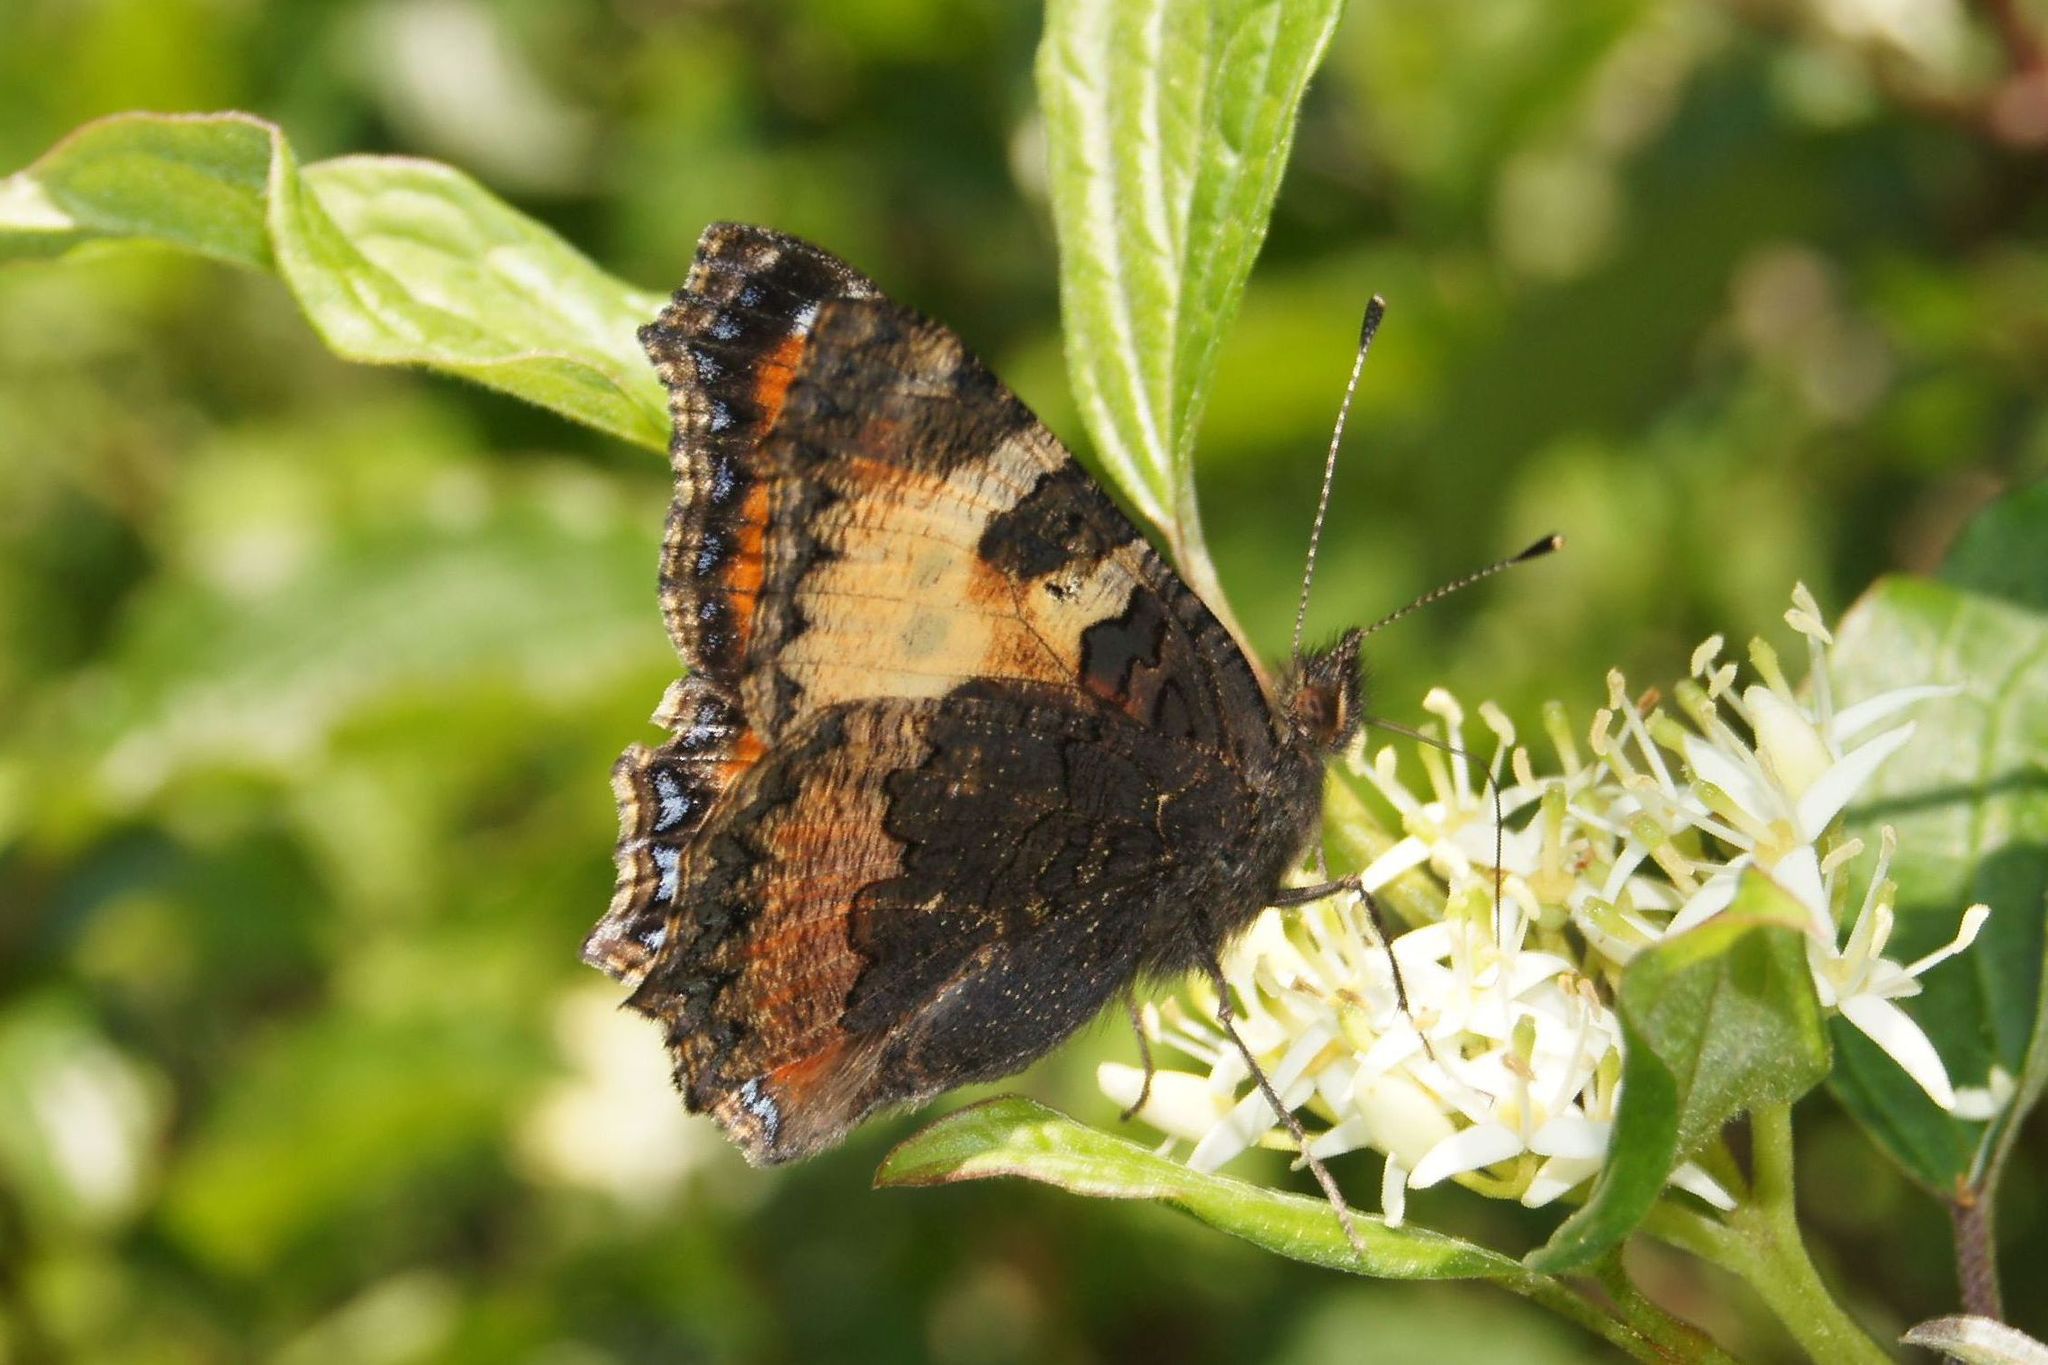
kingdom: Animalia
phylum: Arthropoda
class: Insecta
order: Lepidoptera
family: Nymphalidae
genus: Aglais
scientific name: Aglais urticae
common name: Small tortoiseshell
